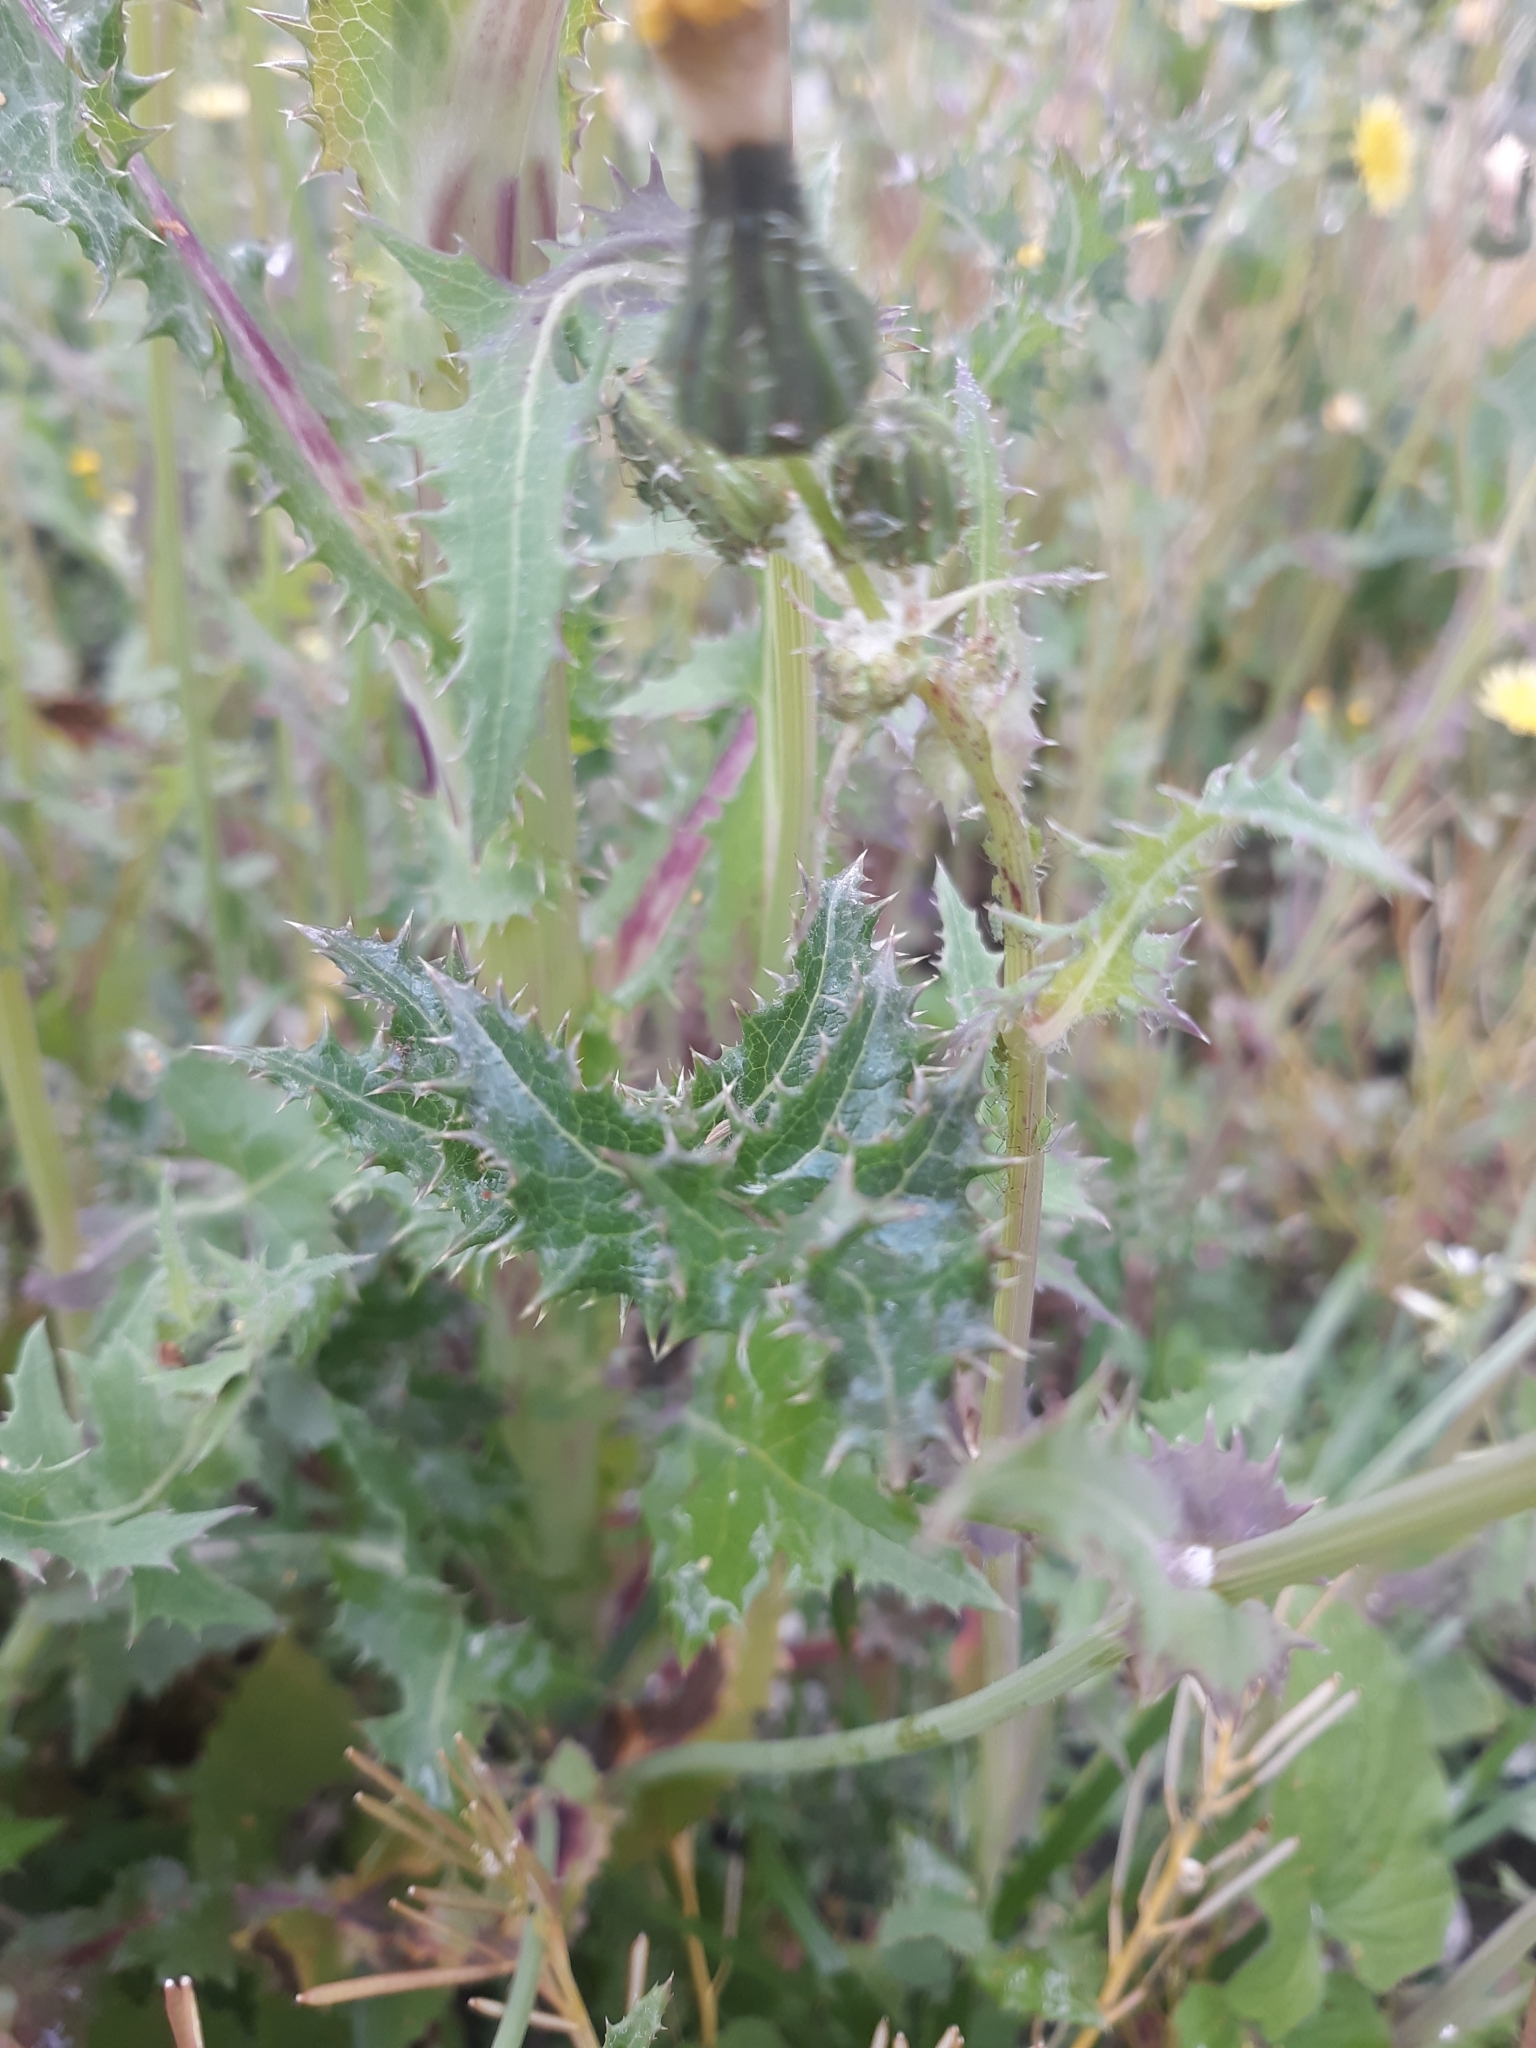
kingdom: Plantae
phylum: Tracheophyta
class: Magnoliopsida
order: Asterales
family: Asteraceae
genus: Sonchus
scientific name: Sonchus asper
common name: Prickly sow-thistle
